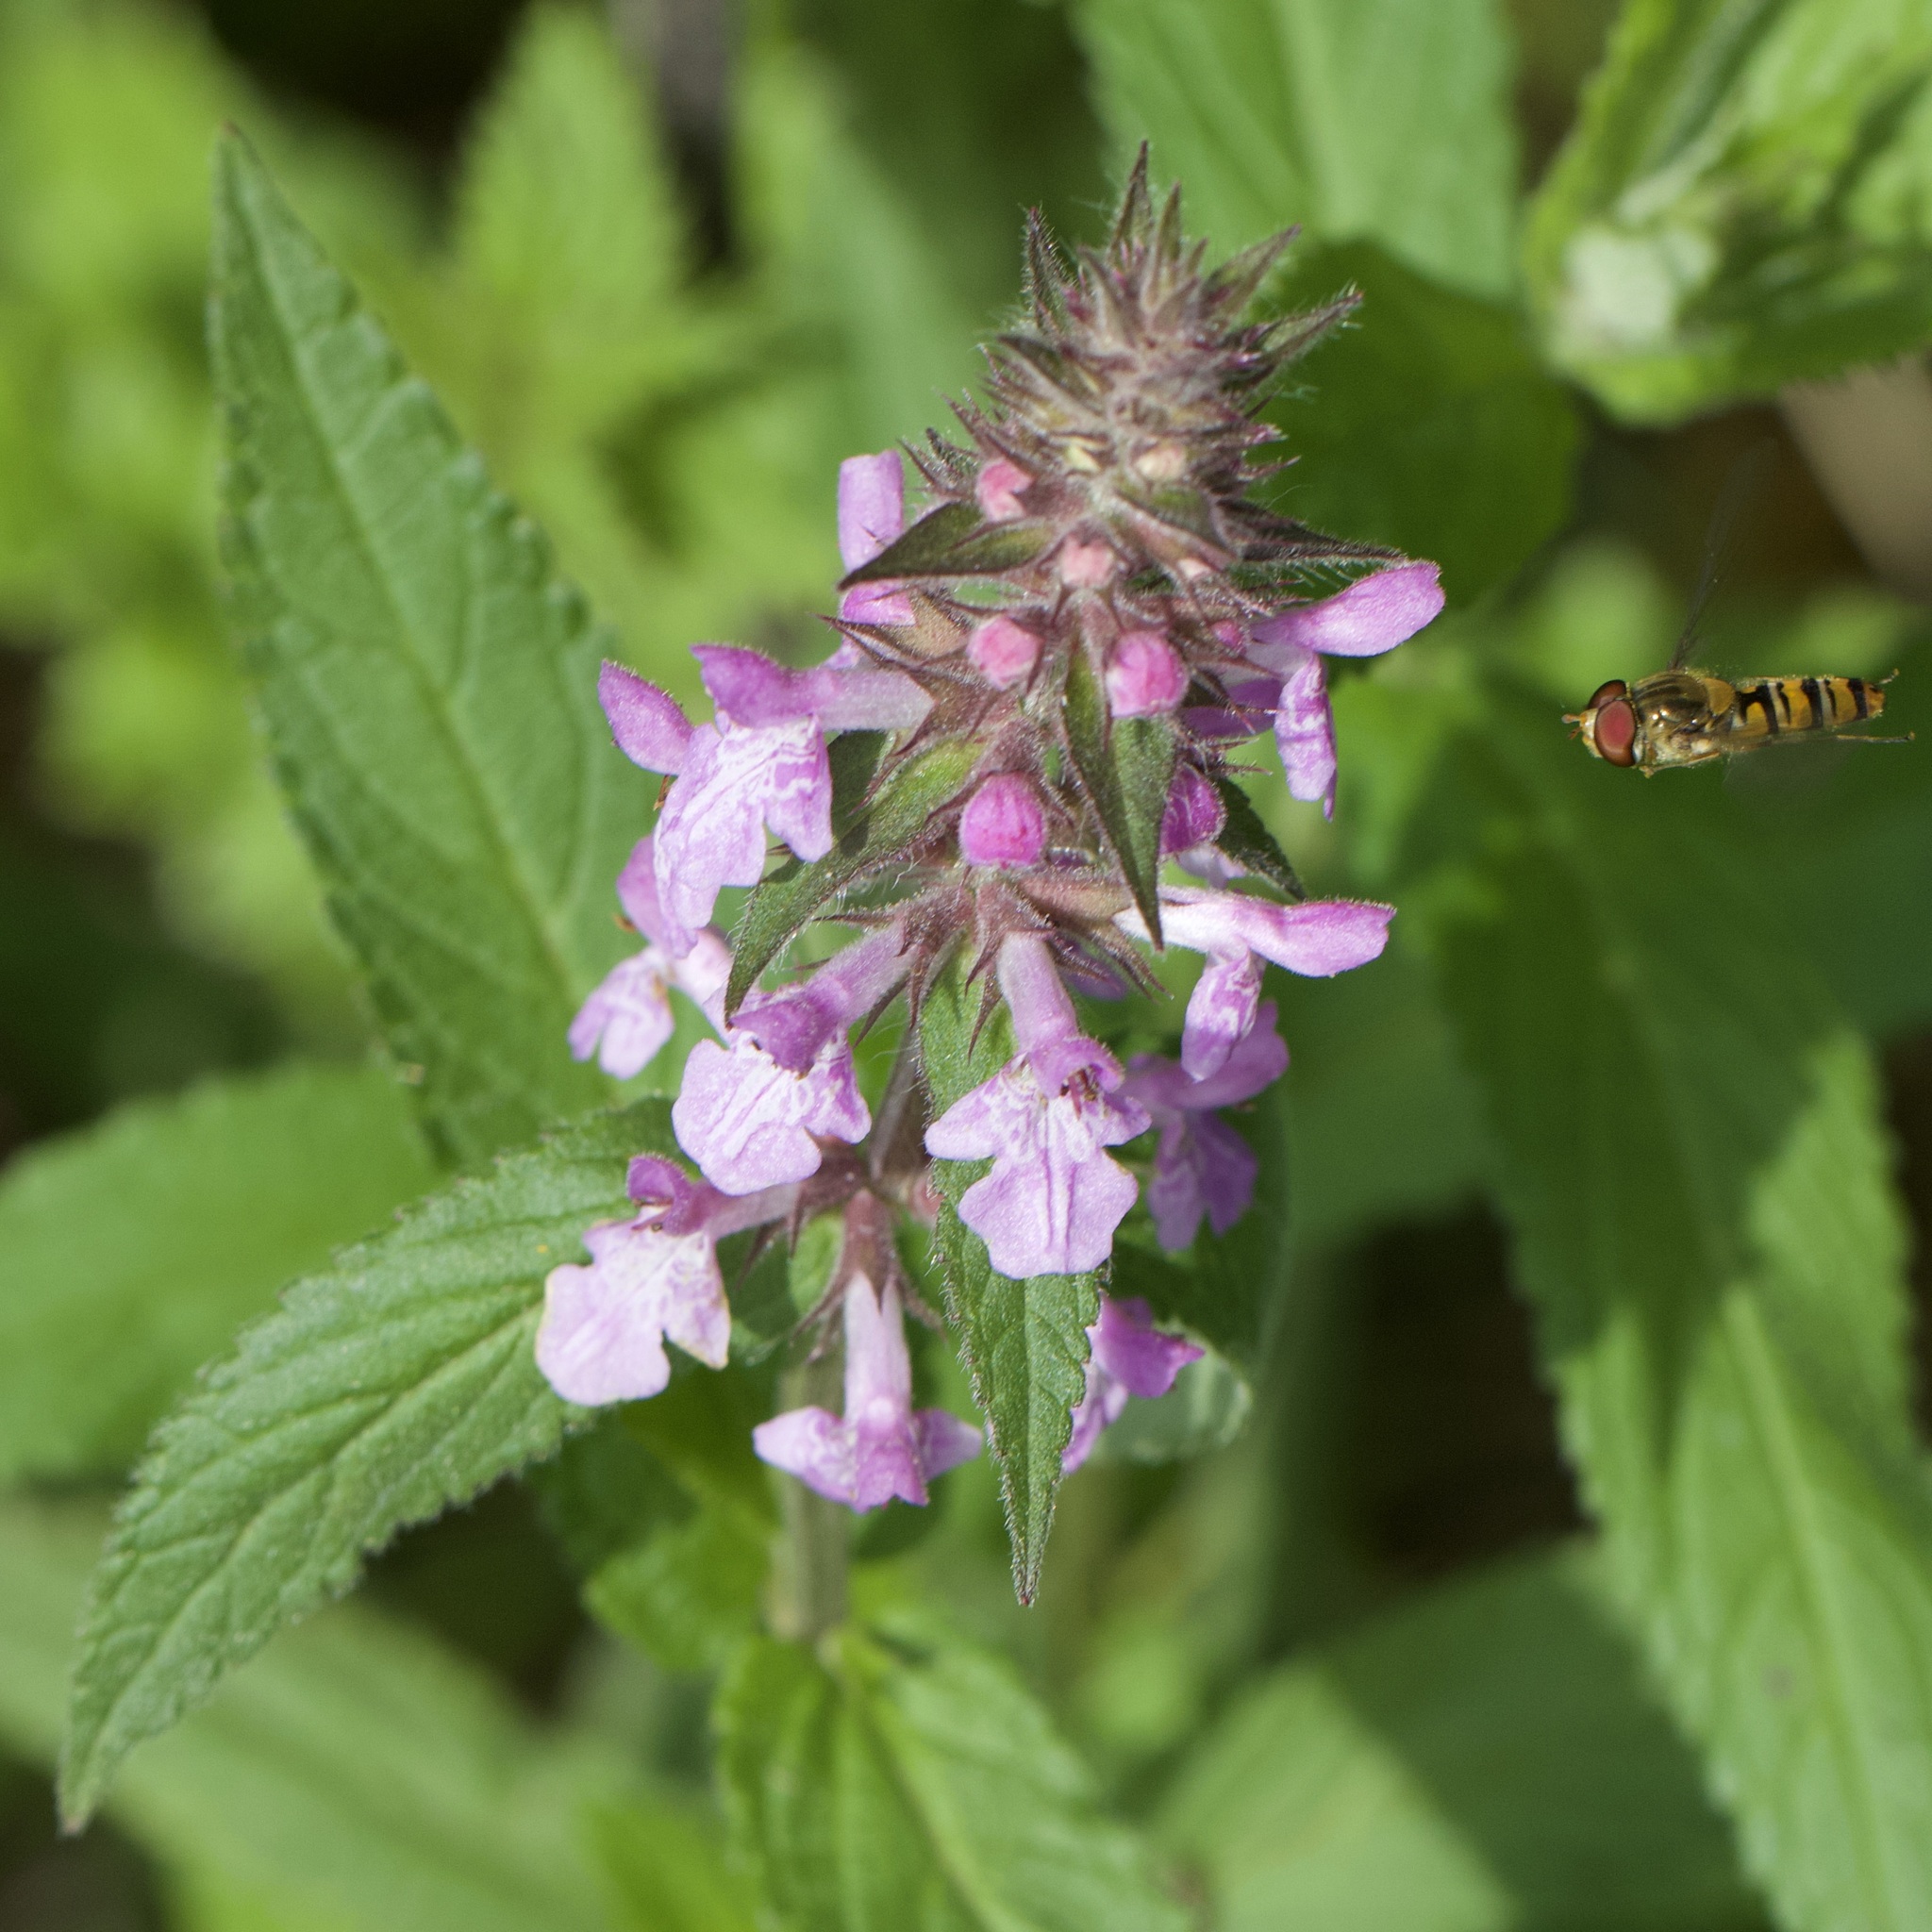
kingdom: Plantae
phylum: Tracheophyta
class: Magnoliopsida
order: Lamiales
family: Lamiaceae
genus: Stachys
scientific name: Stachys palustris
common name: Marsh woundwort
